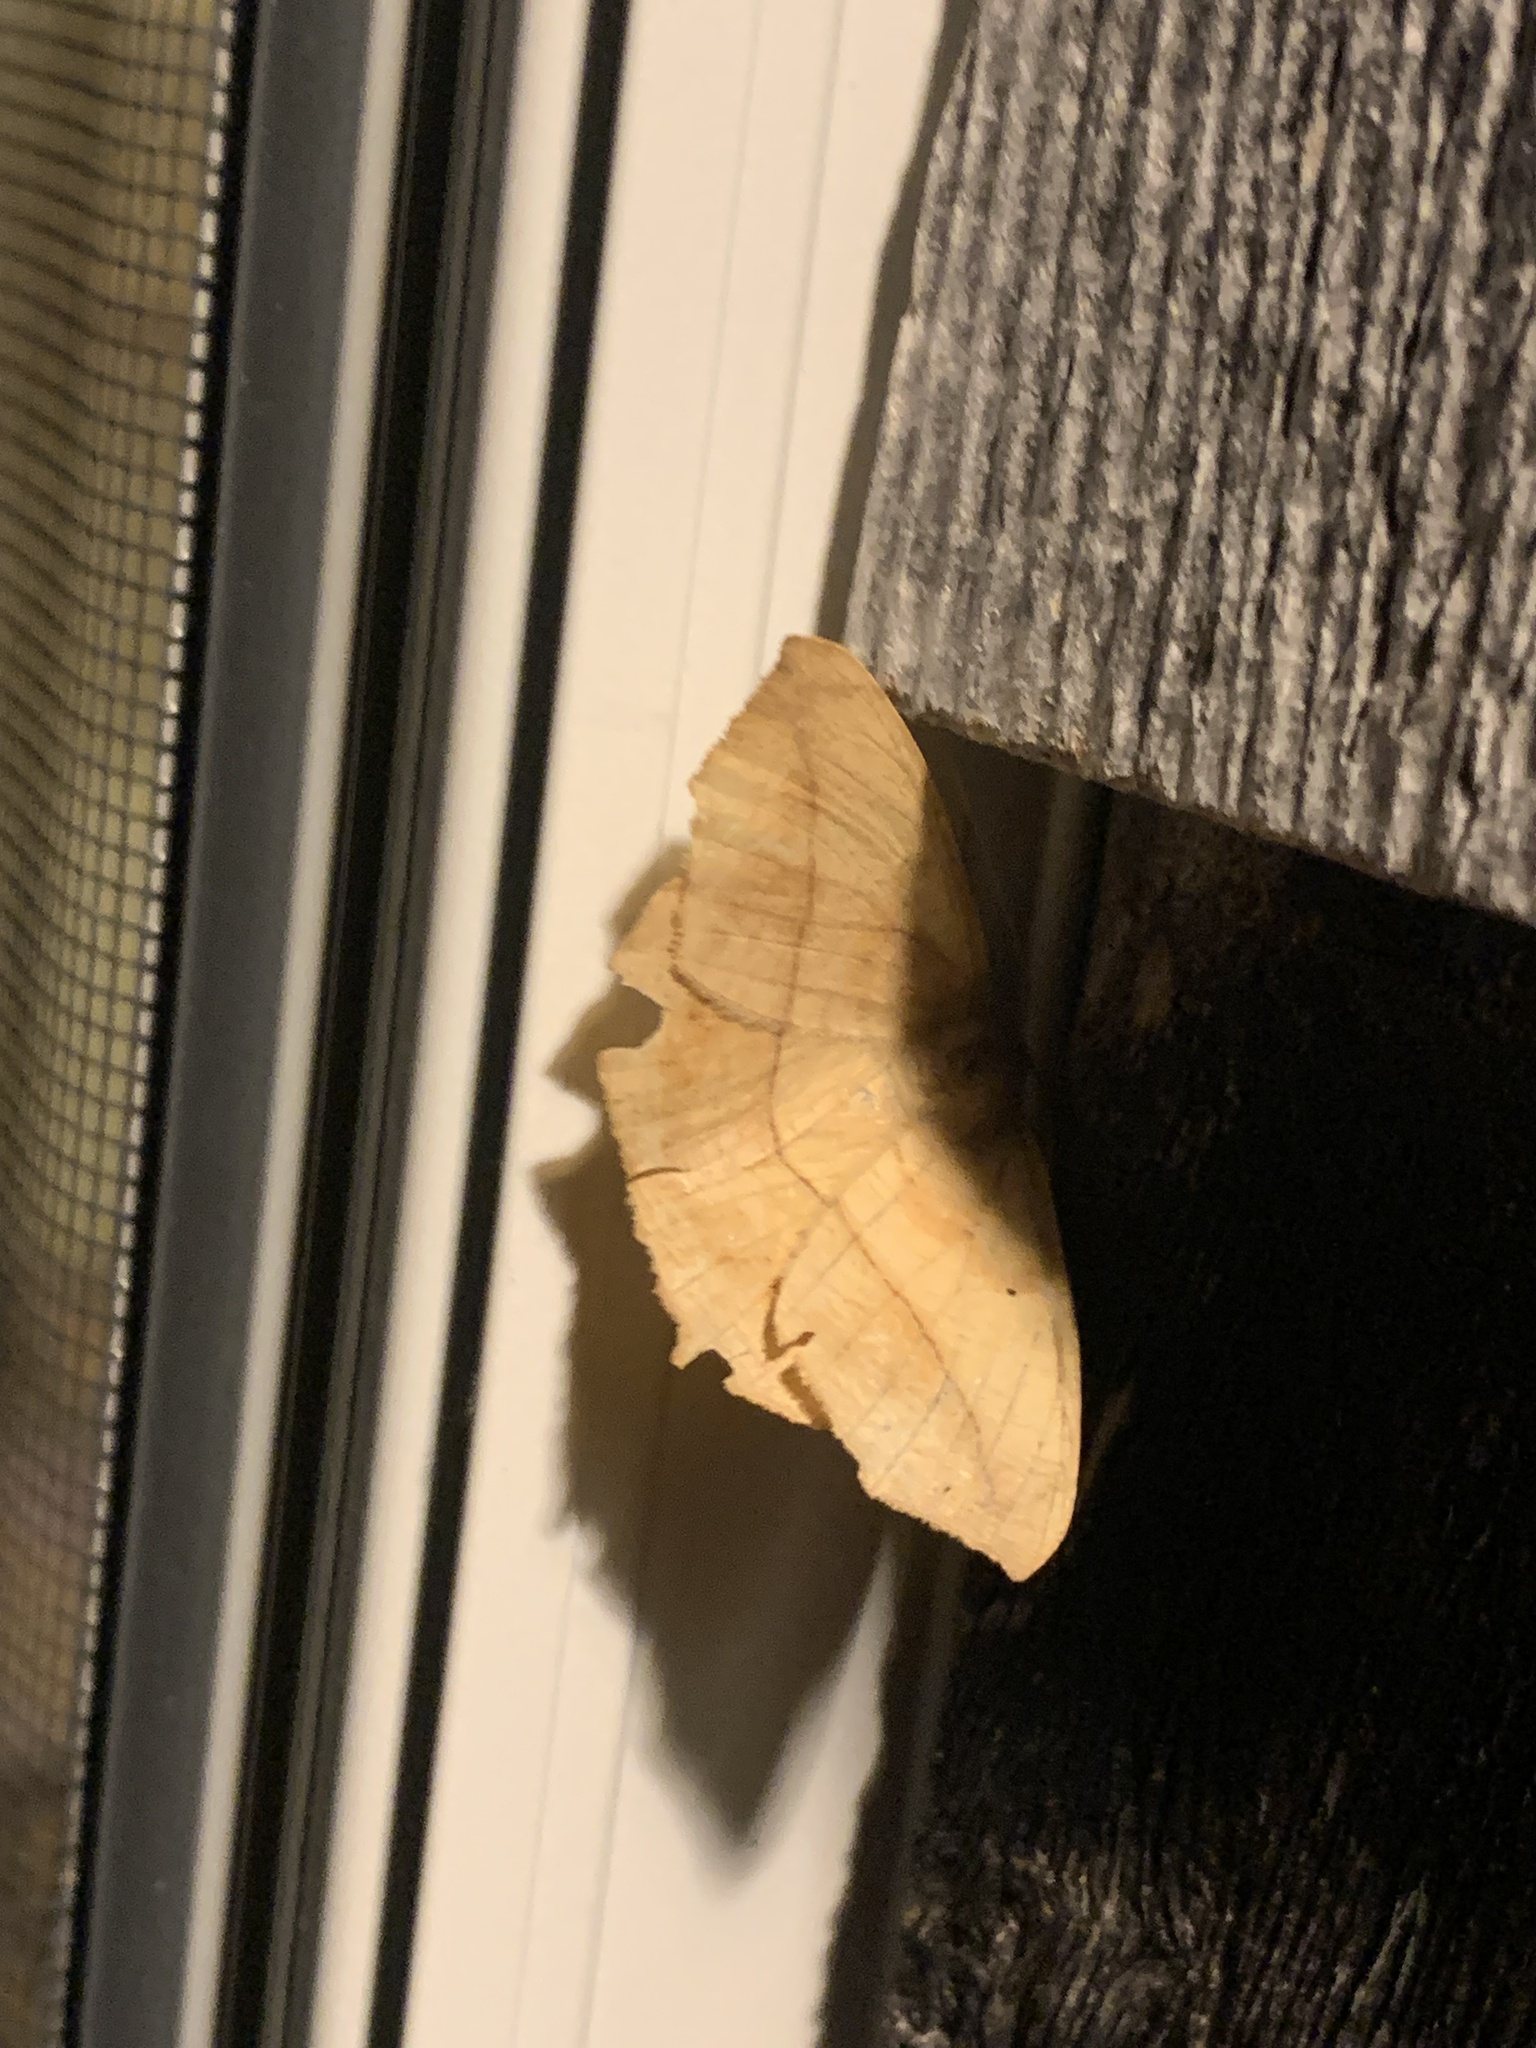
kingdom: Animalia
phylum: Arthropoda
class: Insecta
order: Lepidoptera
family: Geometridae
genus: Prochoerodes
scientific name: Prochoerodes lineola
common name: Large maple spanworm
